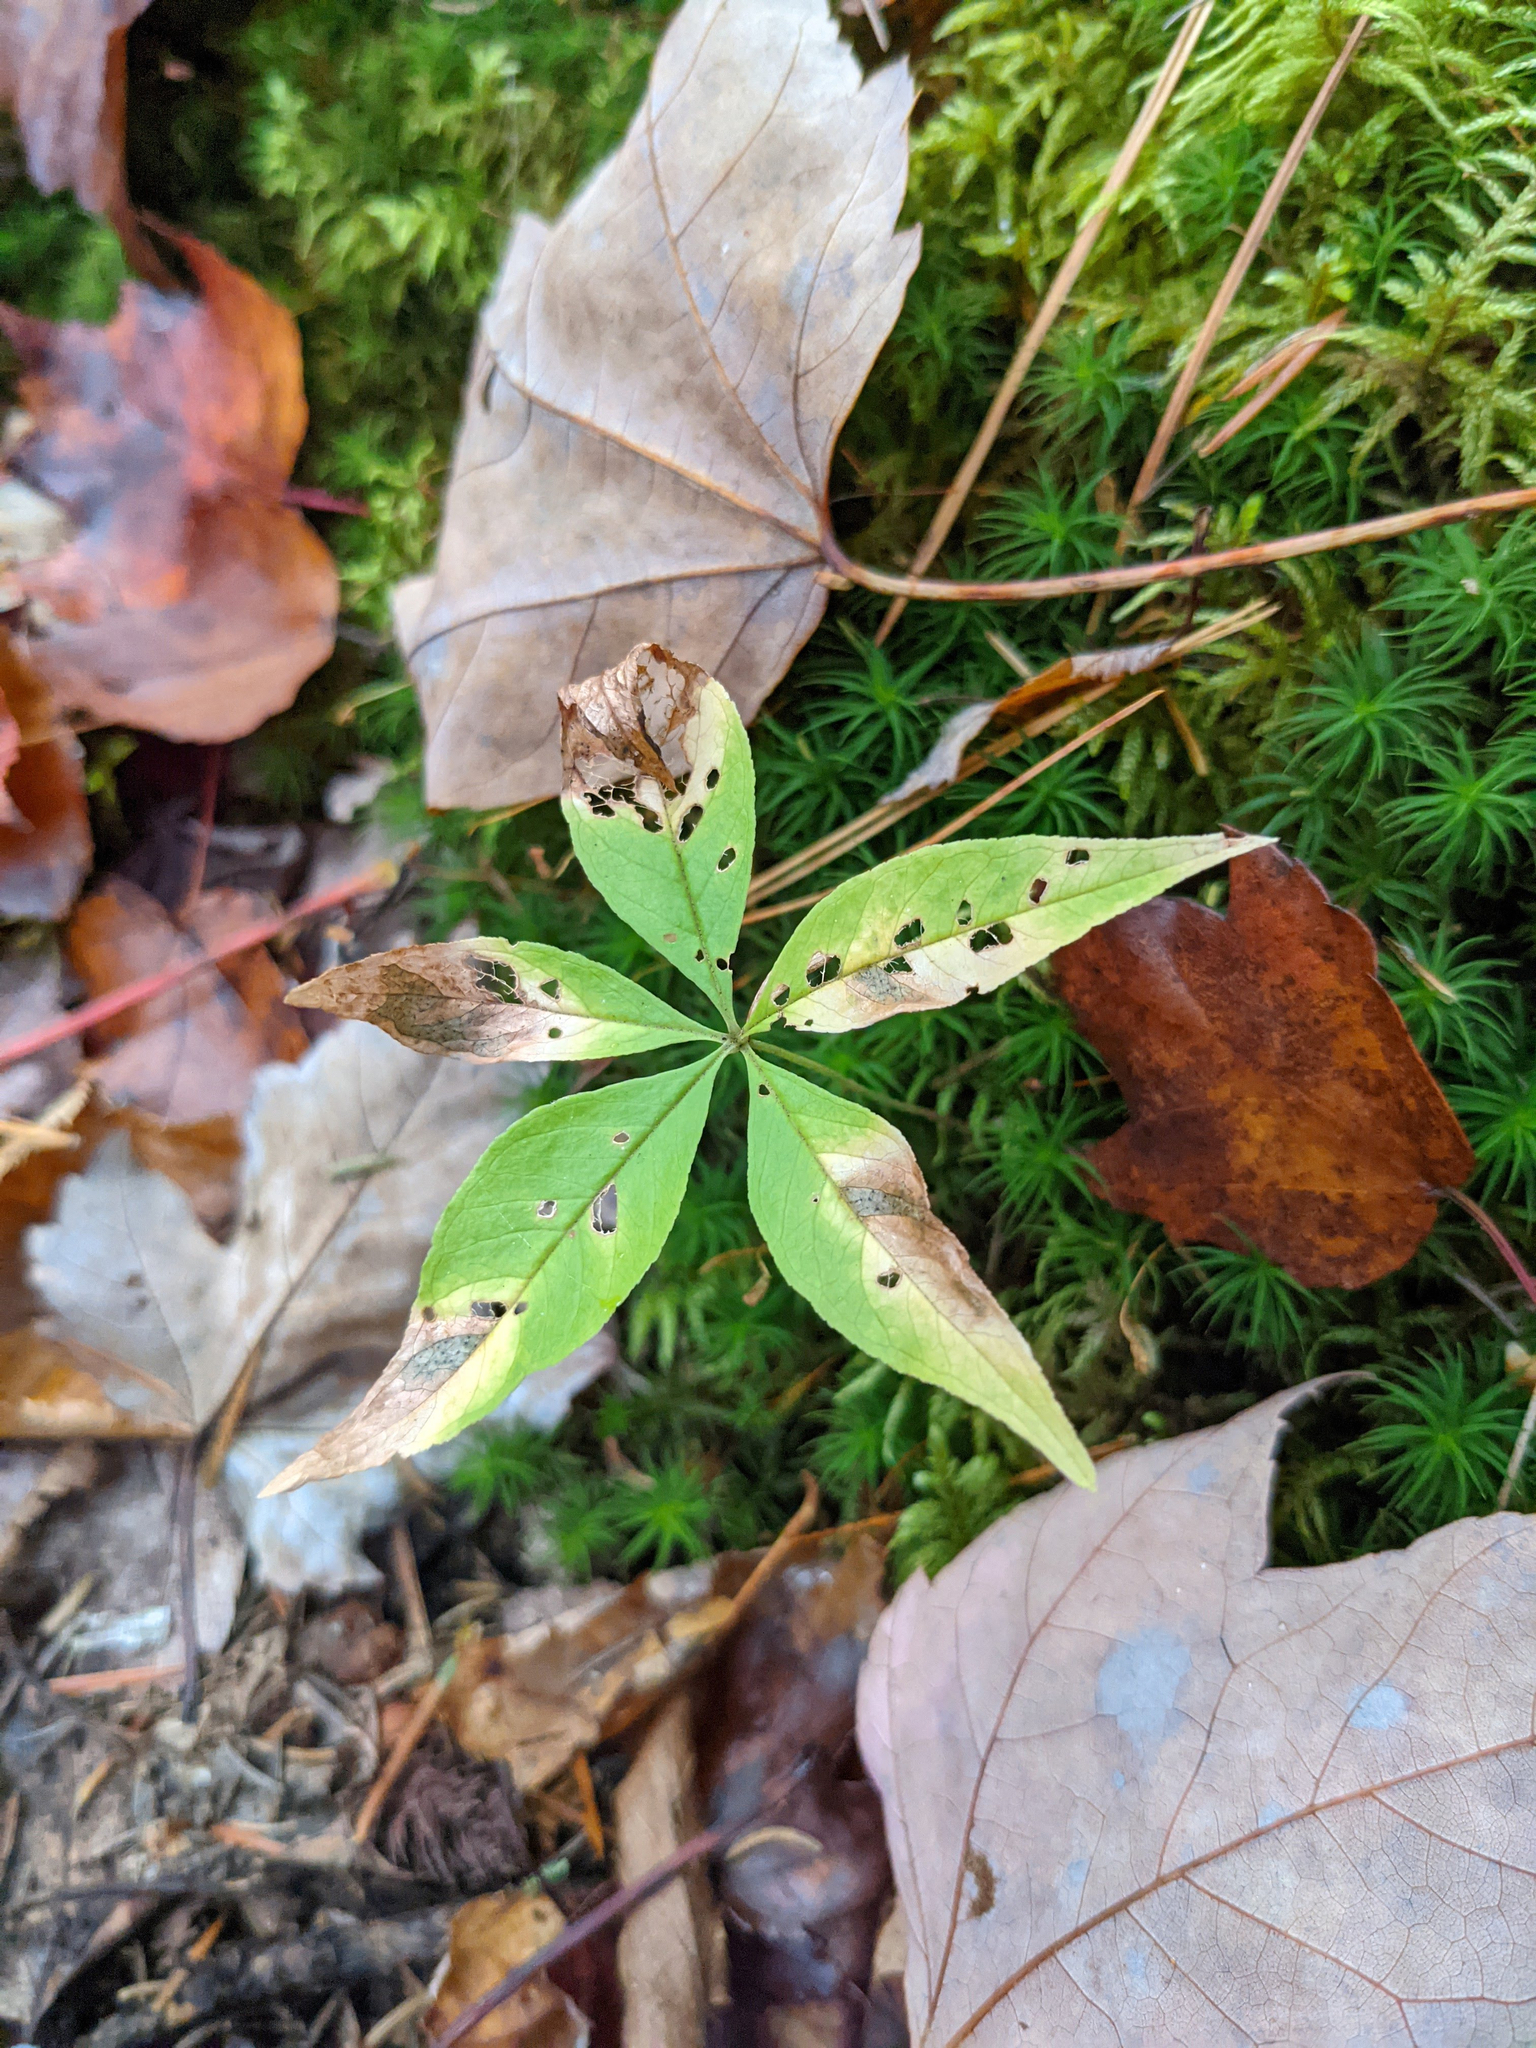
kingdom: Plantae
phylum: Tracheophyta
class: Magnoliopsida
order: Ericales
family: Primulaceae
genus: Lysimachia
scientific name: Lysimachia borealis
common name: American starflower
